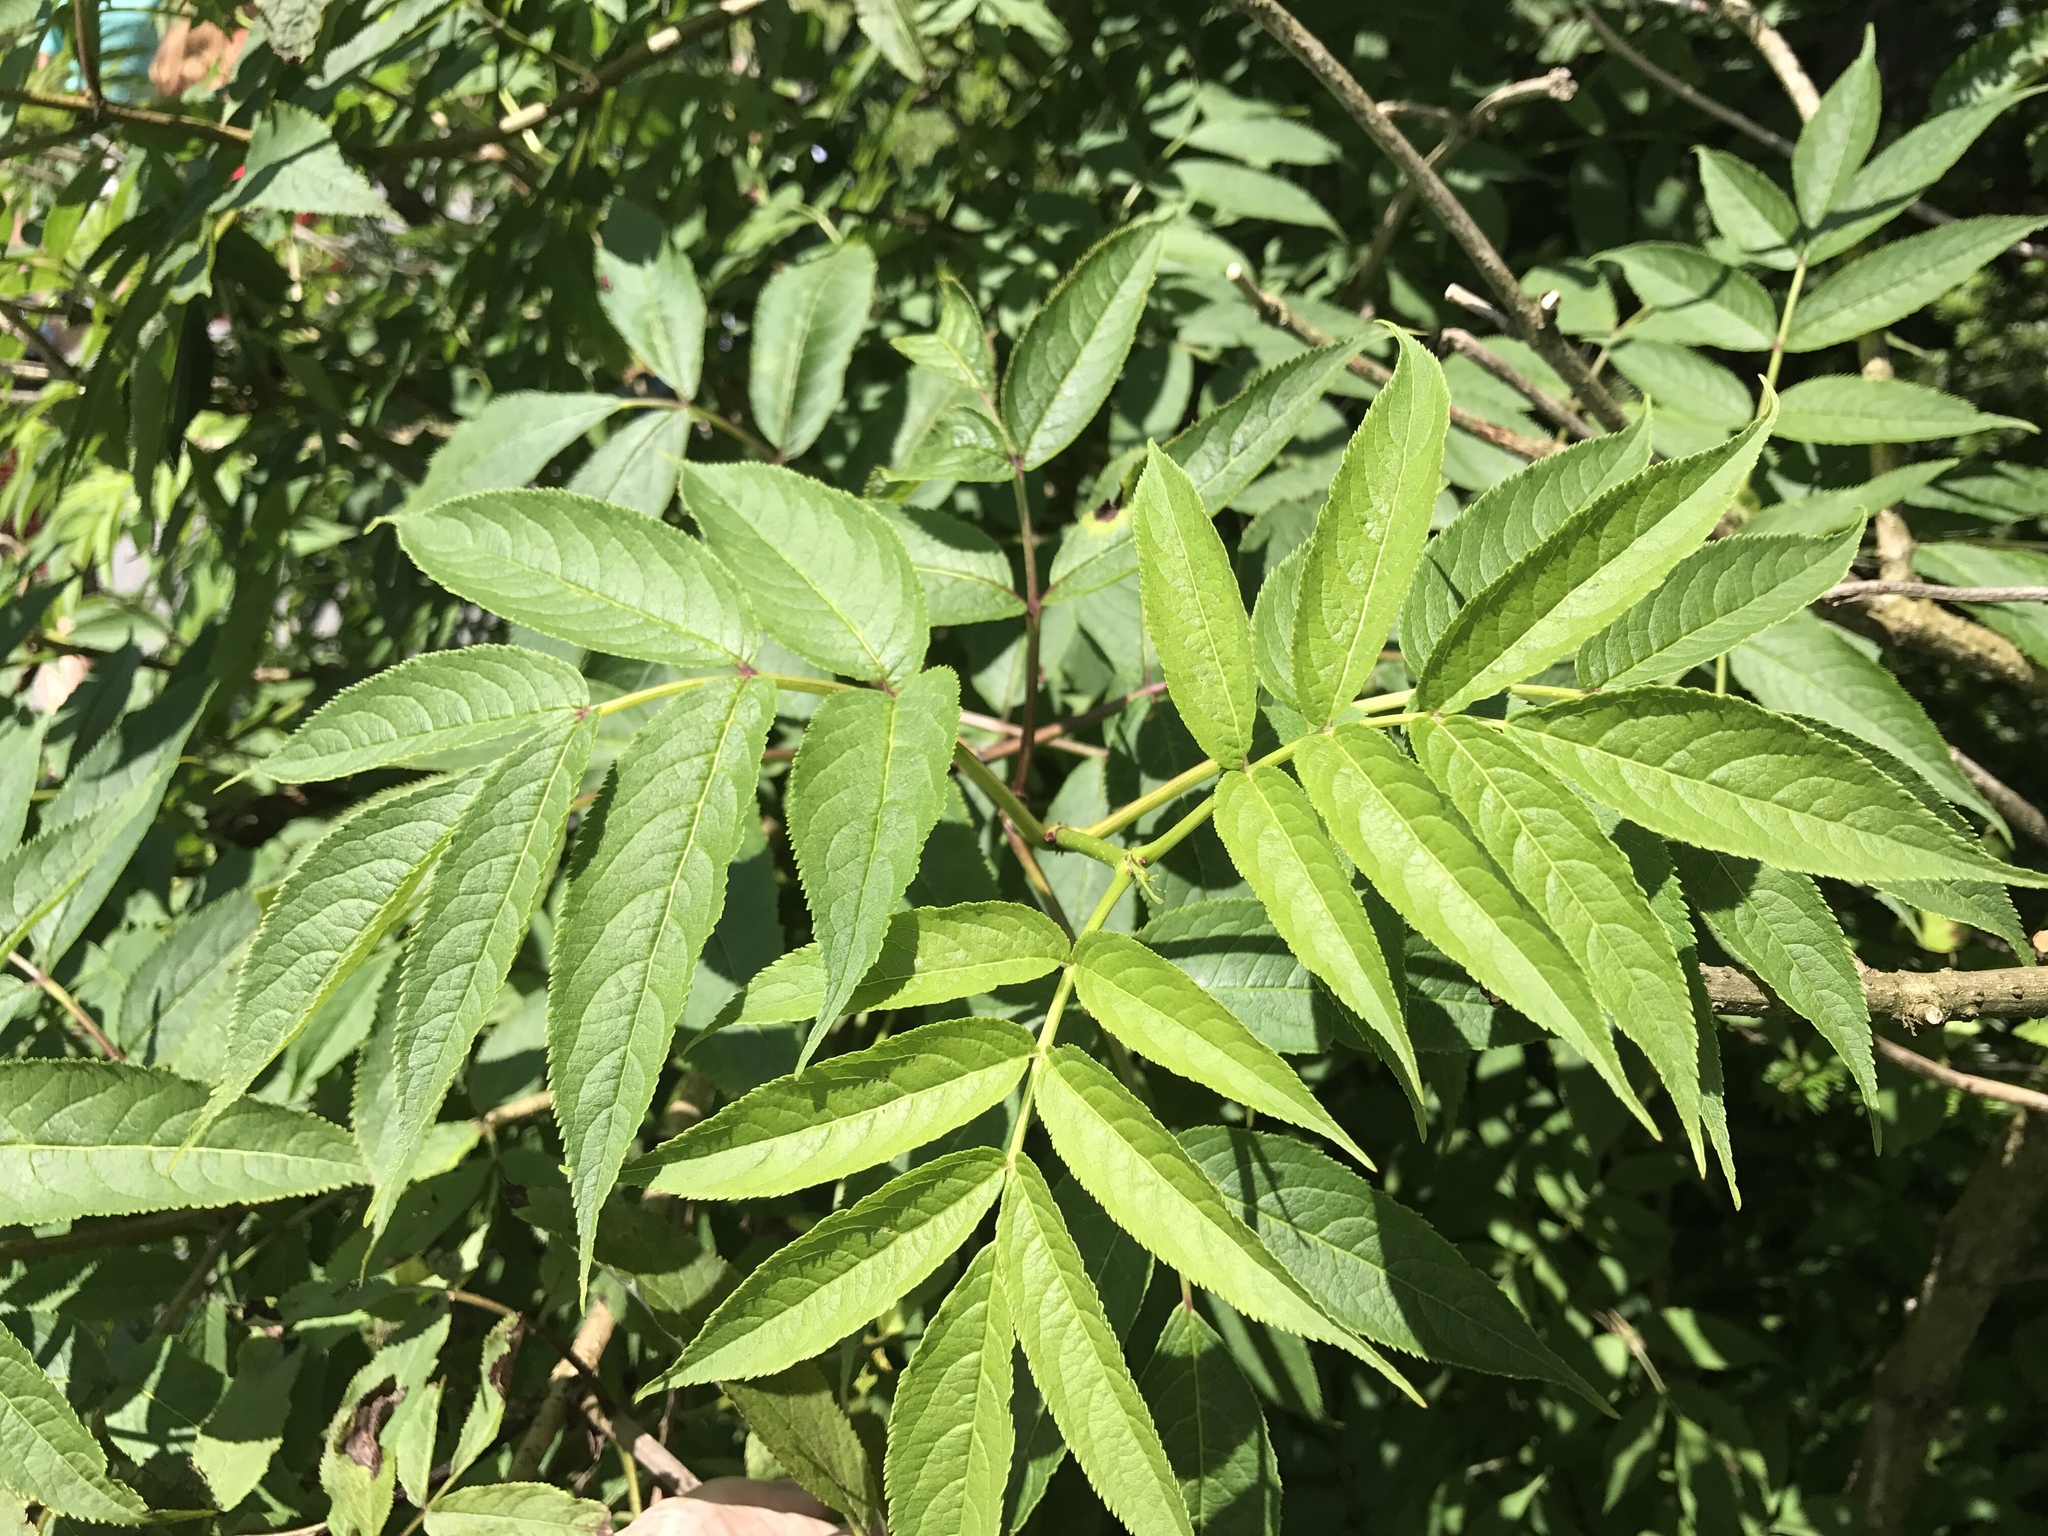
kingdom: Plantae
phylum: Tracheophyta
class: Magnoliopsida
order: Dipsacales
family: Viburnaceae
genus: Sambucus
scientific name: Sambucus racemosa
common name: Red-berried elder
